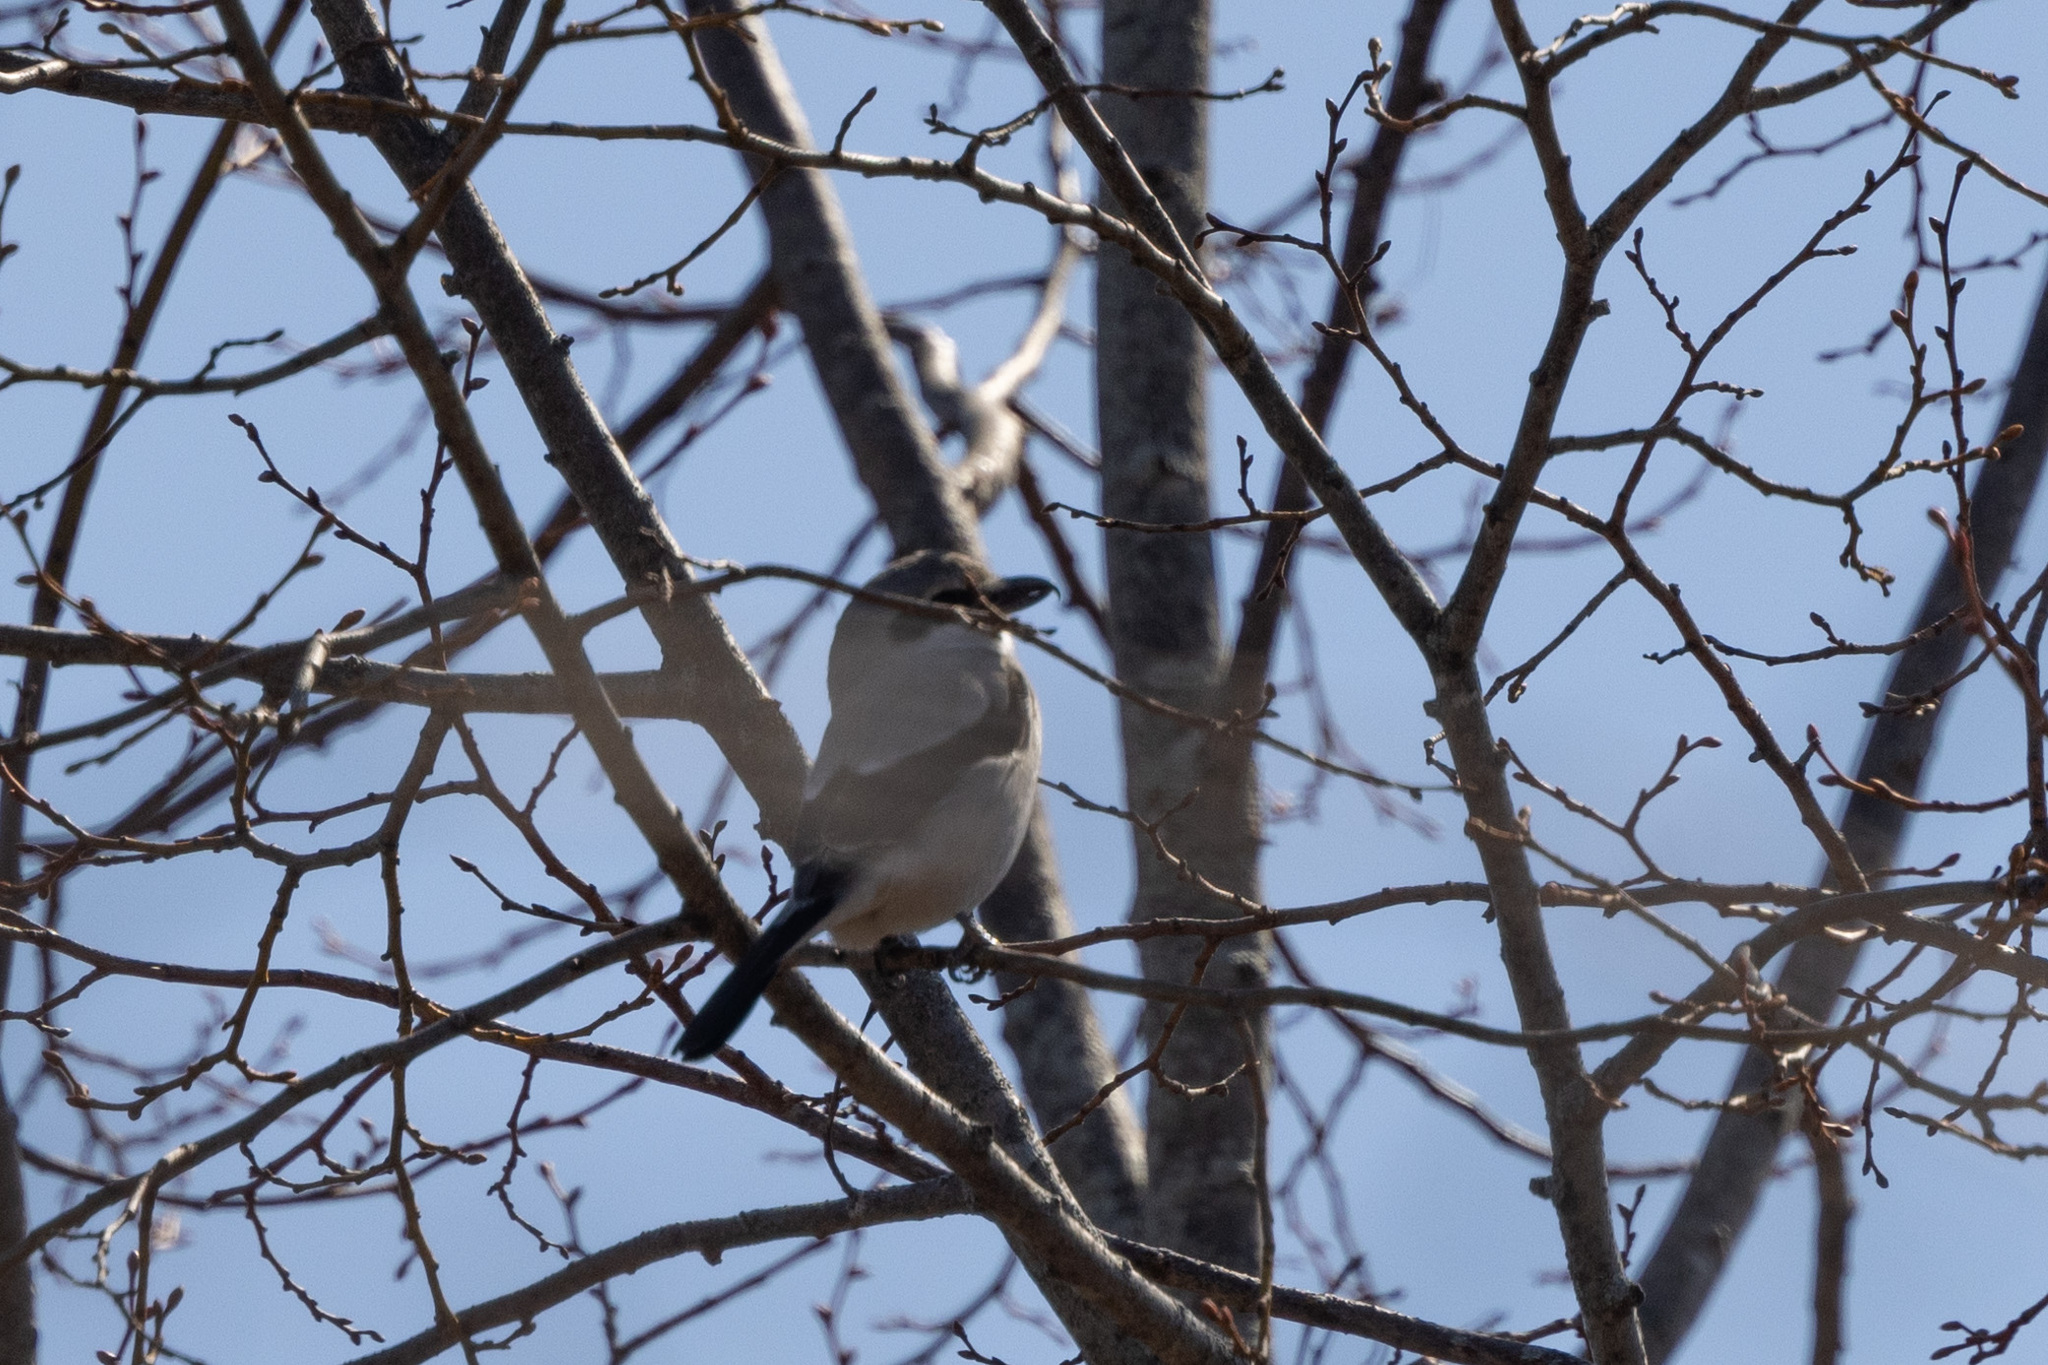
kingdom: Animalia
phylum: Chordata
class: Aves
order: Passeriformes
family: Laniidae
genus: Lanius
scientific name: Lanius borealis
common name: Northern shrike
